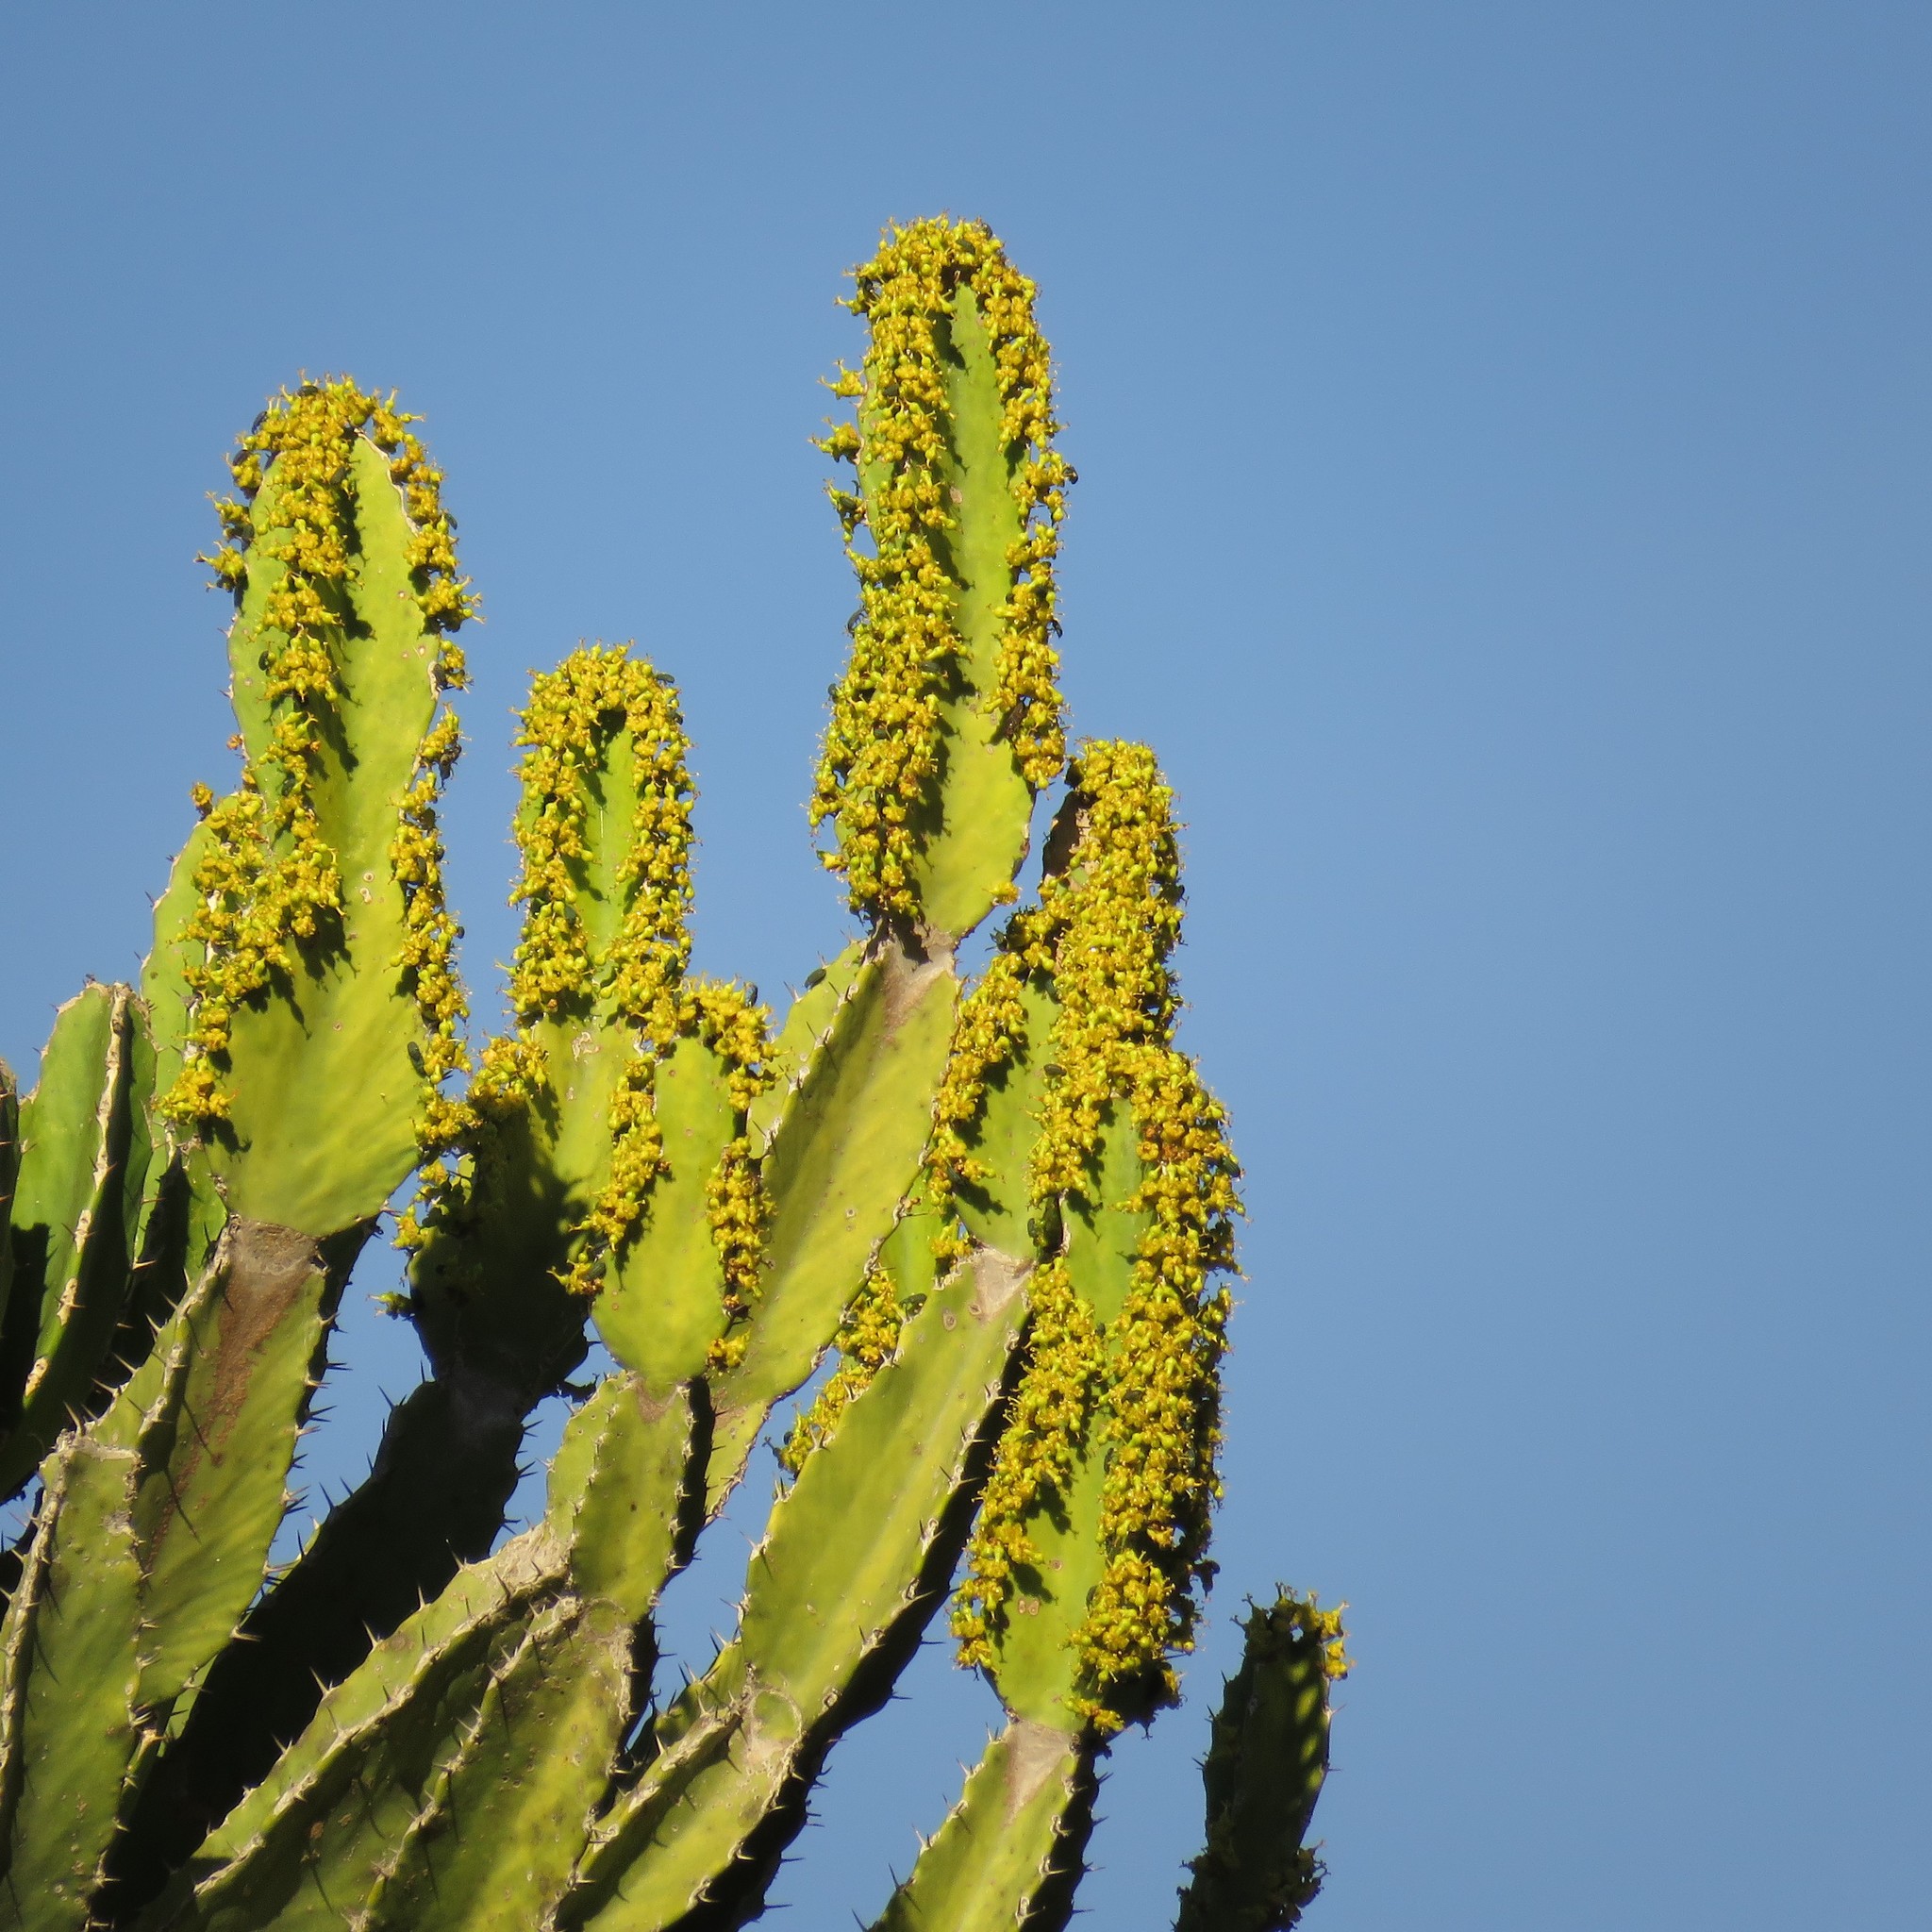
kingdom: Plantae
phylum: Tracheophyta
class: Magnoliopsida
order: Malpighiales
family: Euphorbiaceae
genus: Euphorbia
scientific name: Euphorbia triangularis
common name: Chandelier tree
